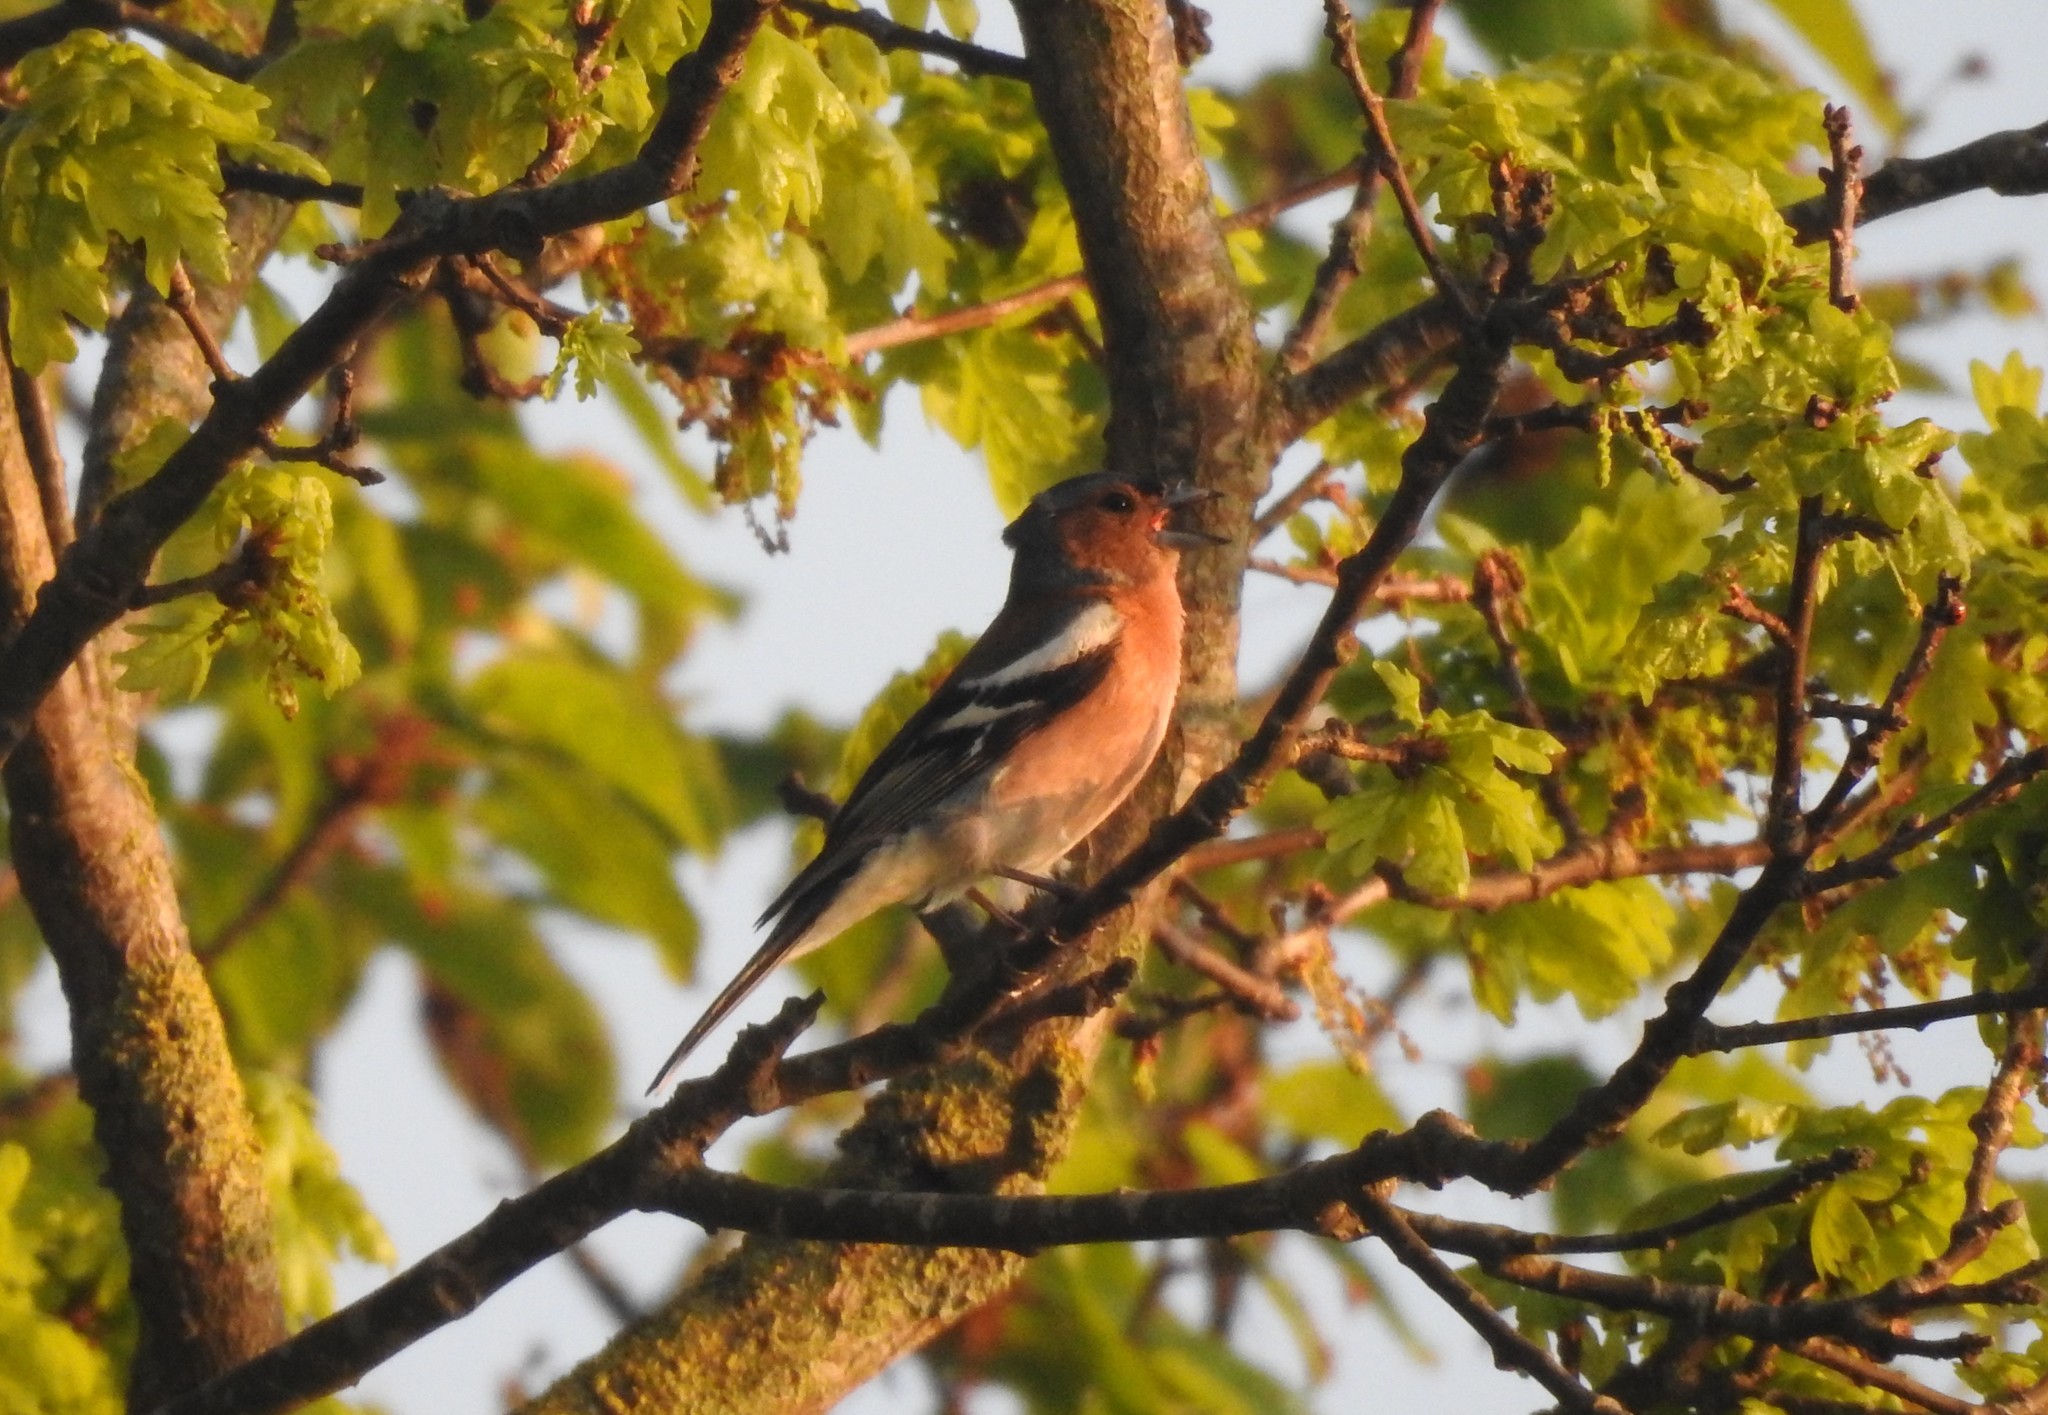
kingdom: Animalia
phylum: Chordata
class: Aves
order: Passeriformes
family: Fringillidae
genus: Fringilla
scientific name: Fringilla coelebs
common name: Common chaffinch
